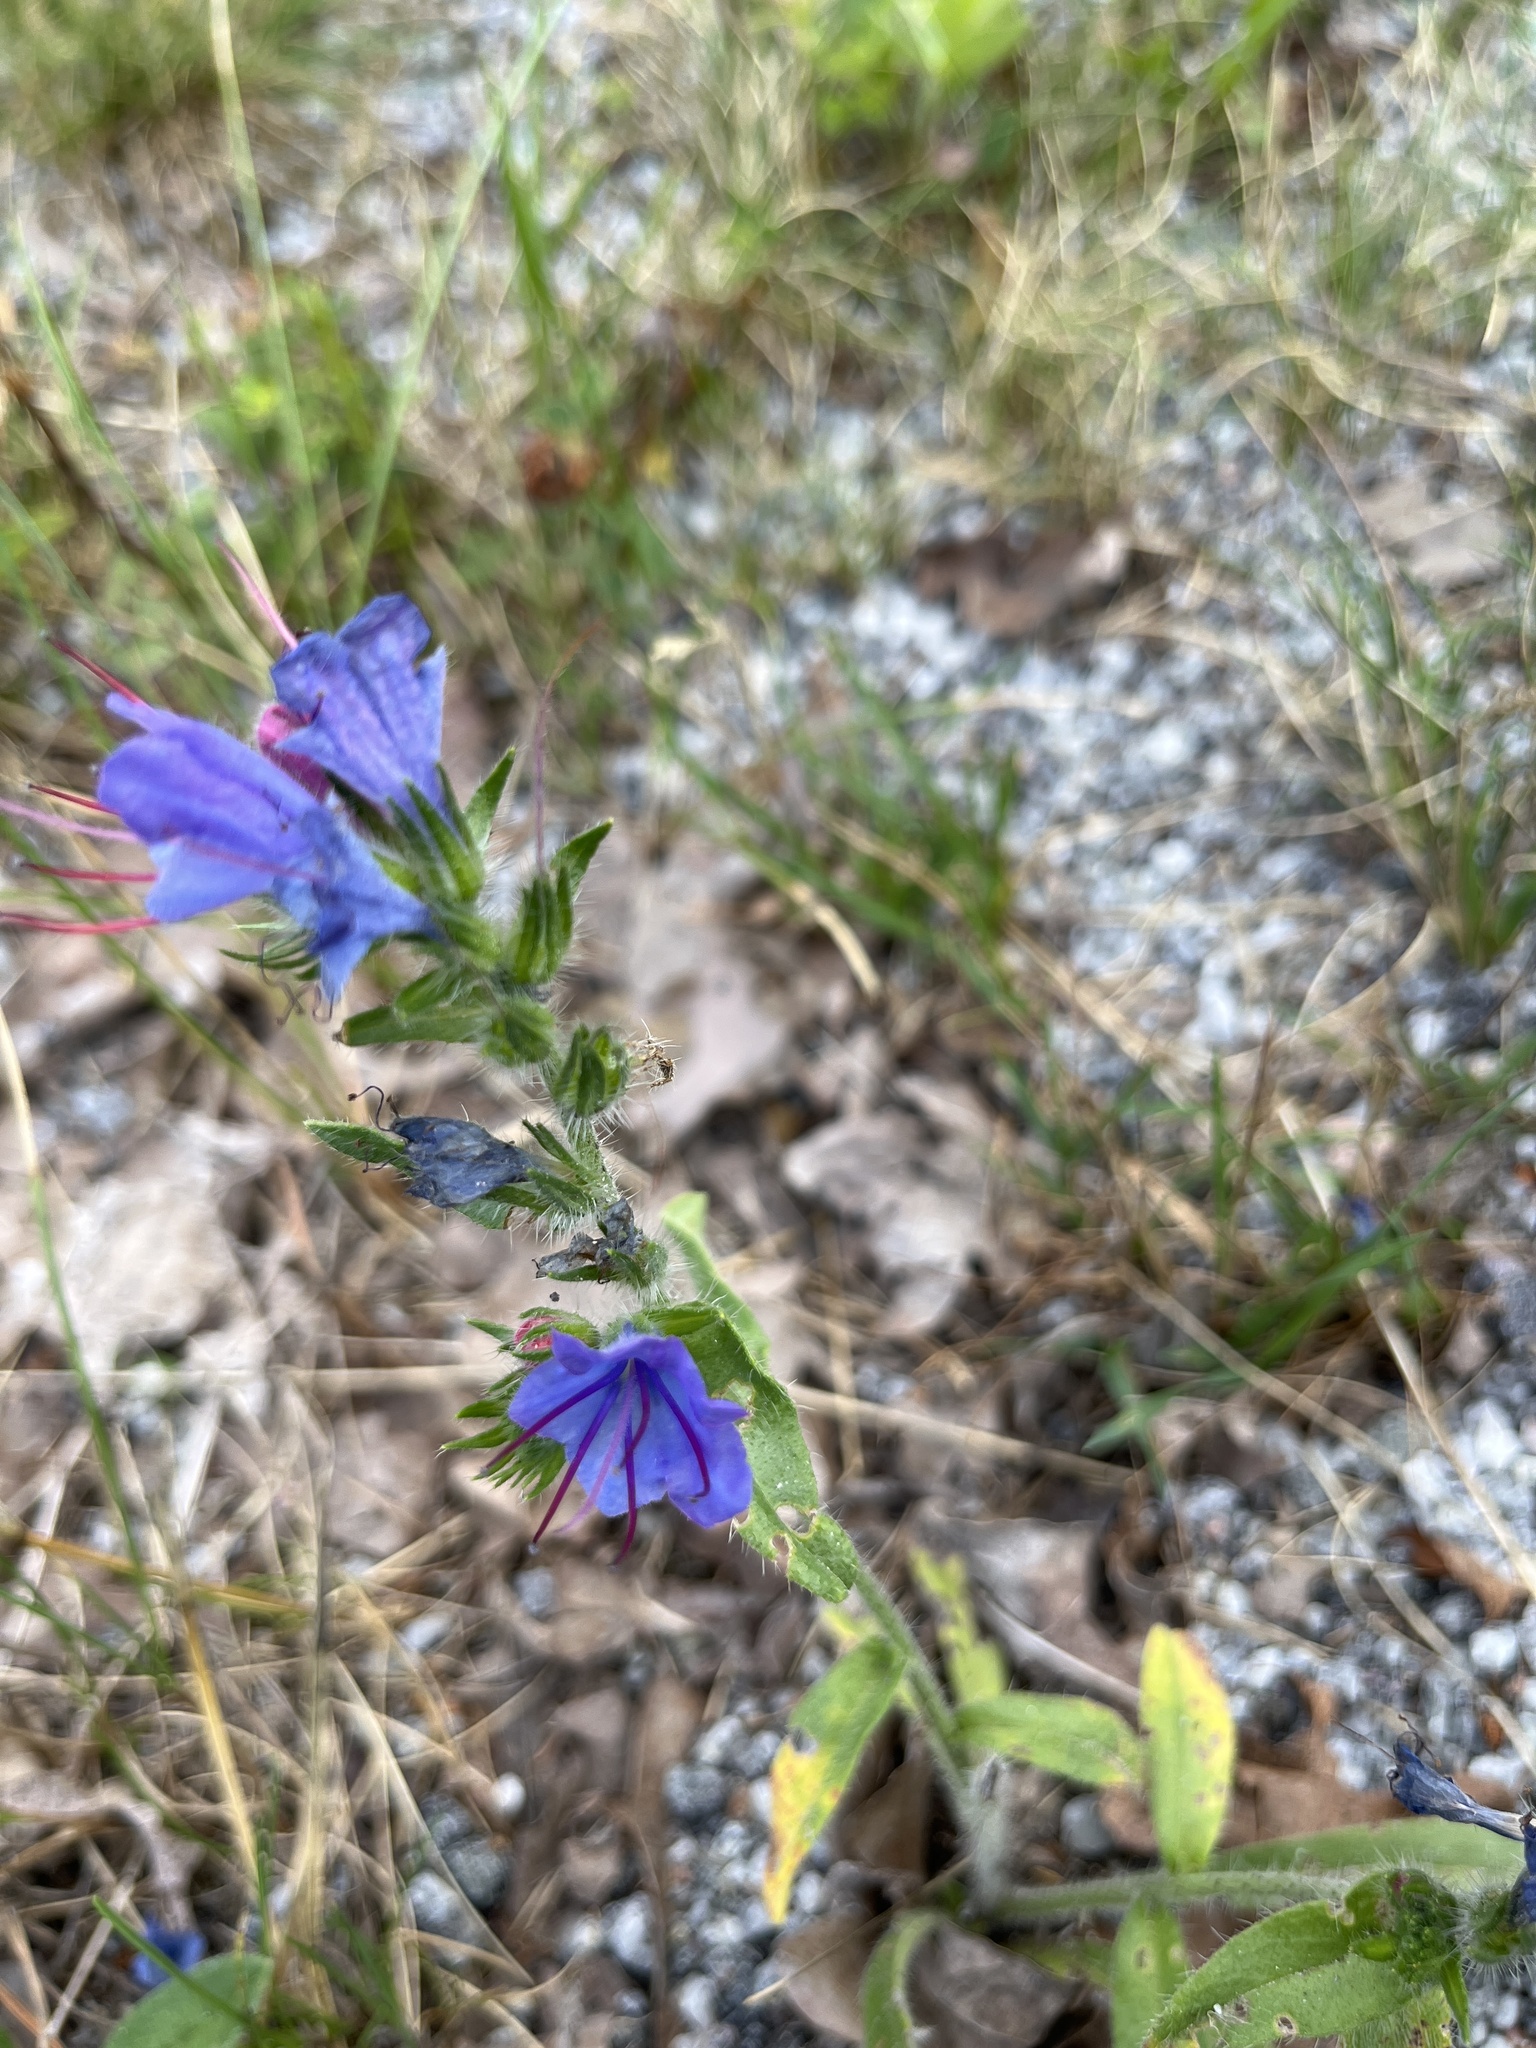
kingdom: Plantae
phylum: Tracheophyta
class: Magnoliopsida
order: Boraginales
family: Boraginaceae
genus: Echium
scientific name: Echium vulgare
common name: Common viper's bugloss
